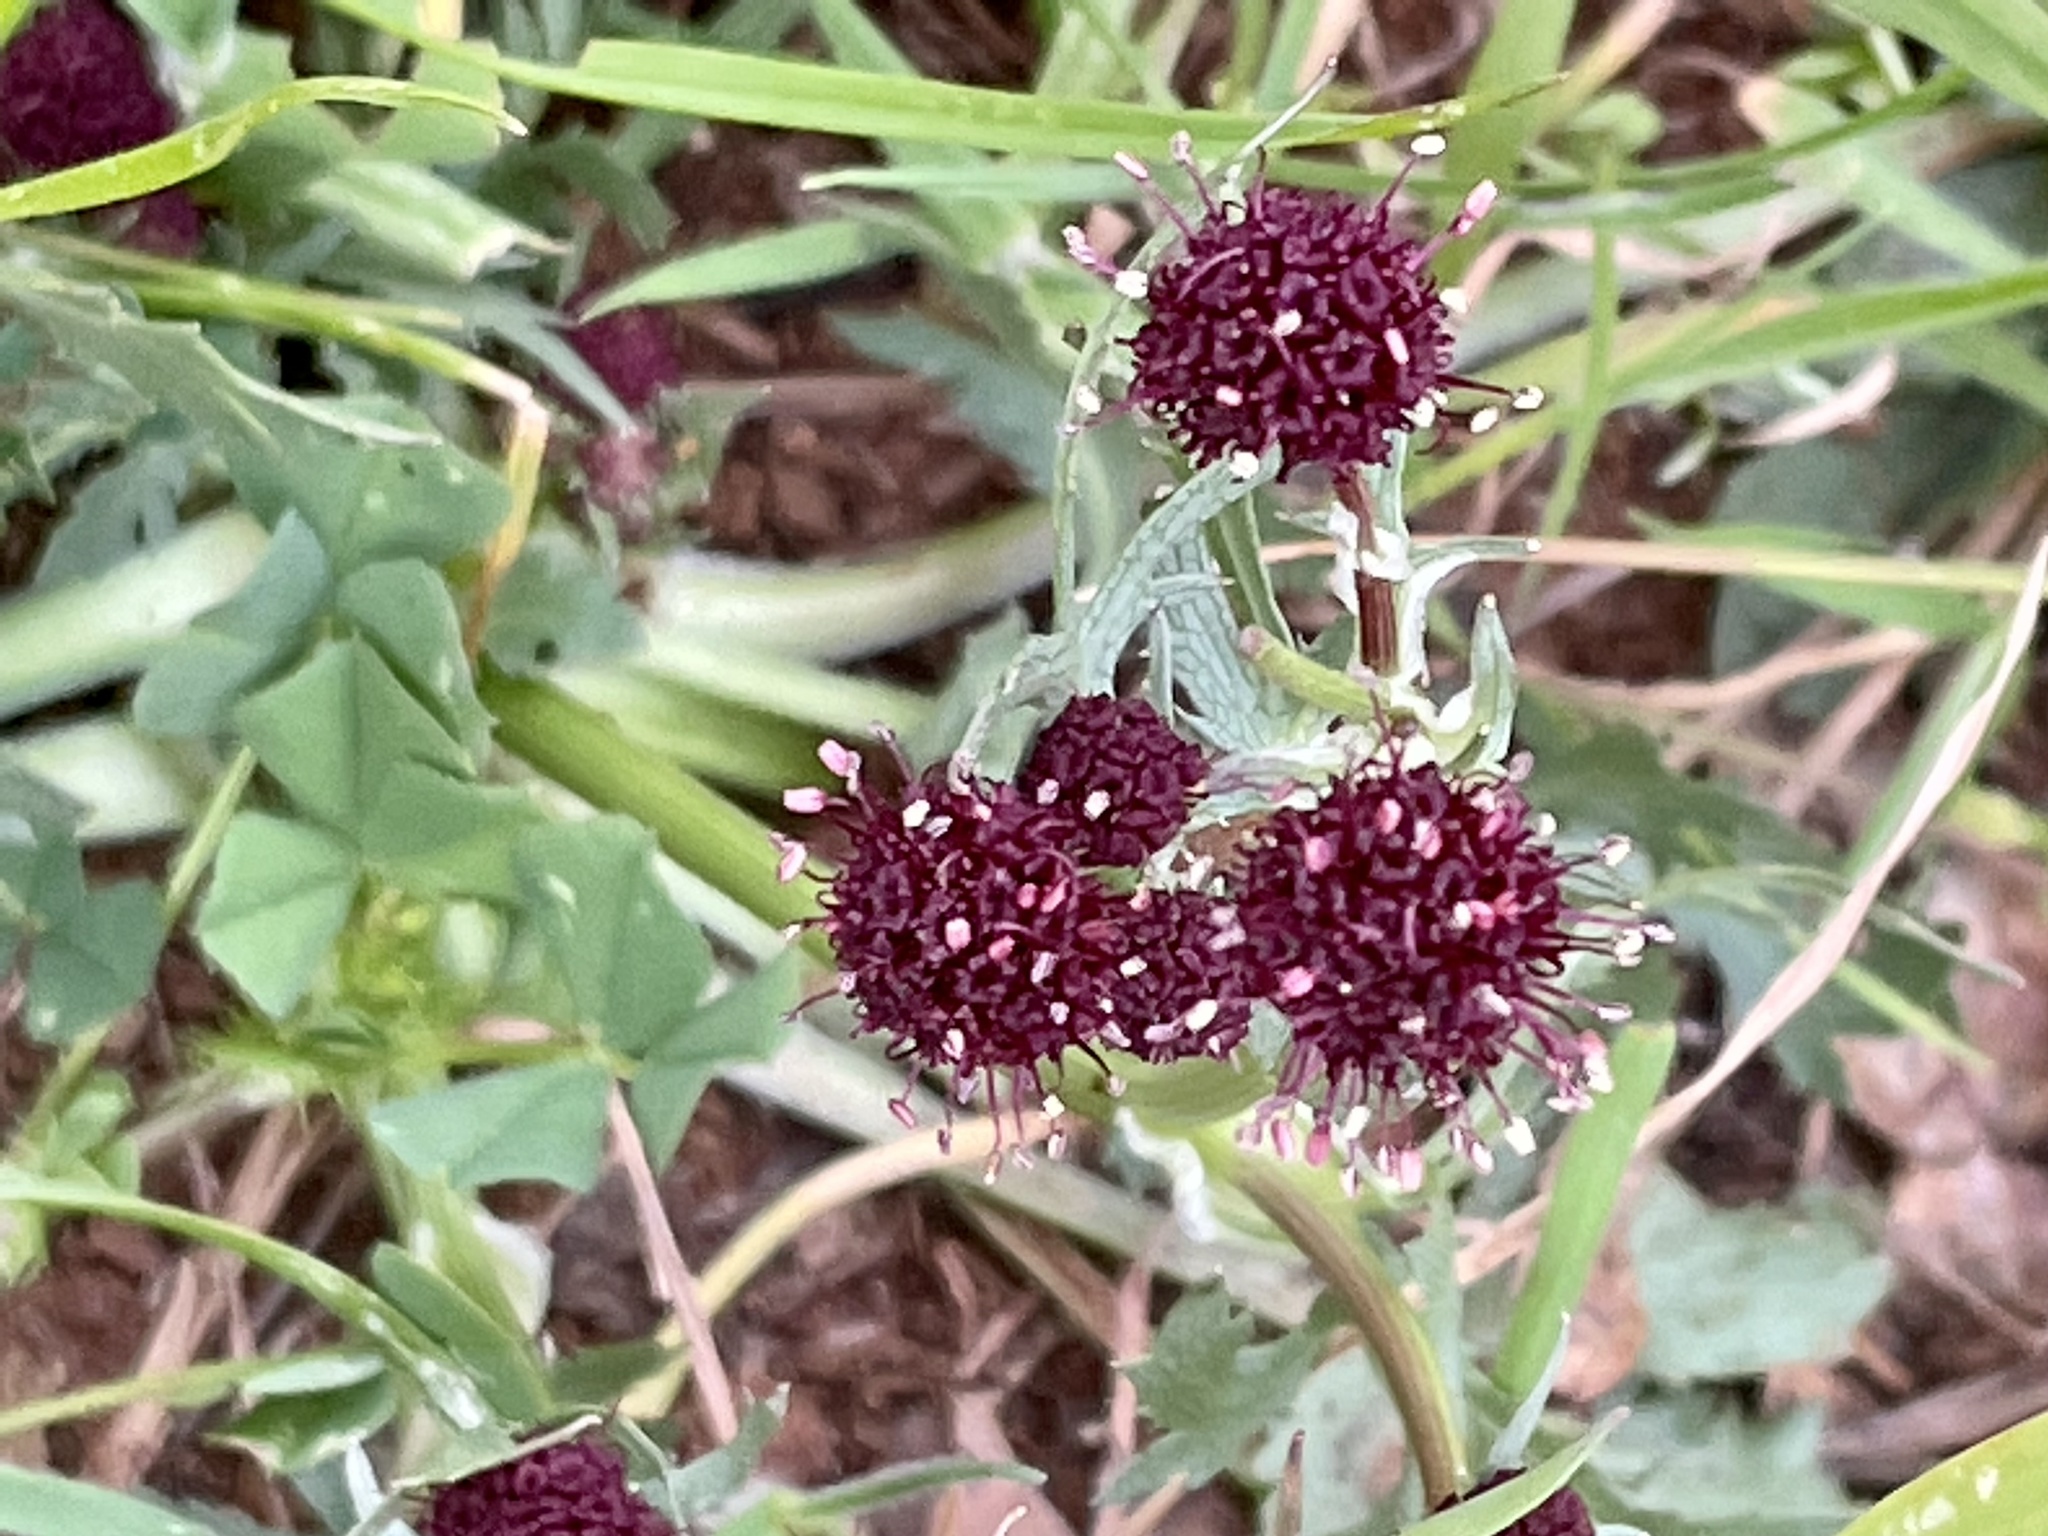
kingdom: Plantae
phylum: Tracheophyta
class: Magnoliopsida
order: Apiales
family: Apiaceae
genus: Sanicula
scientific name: Sanicula bipinnatifida
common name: Shoe-buttons
